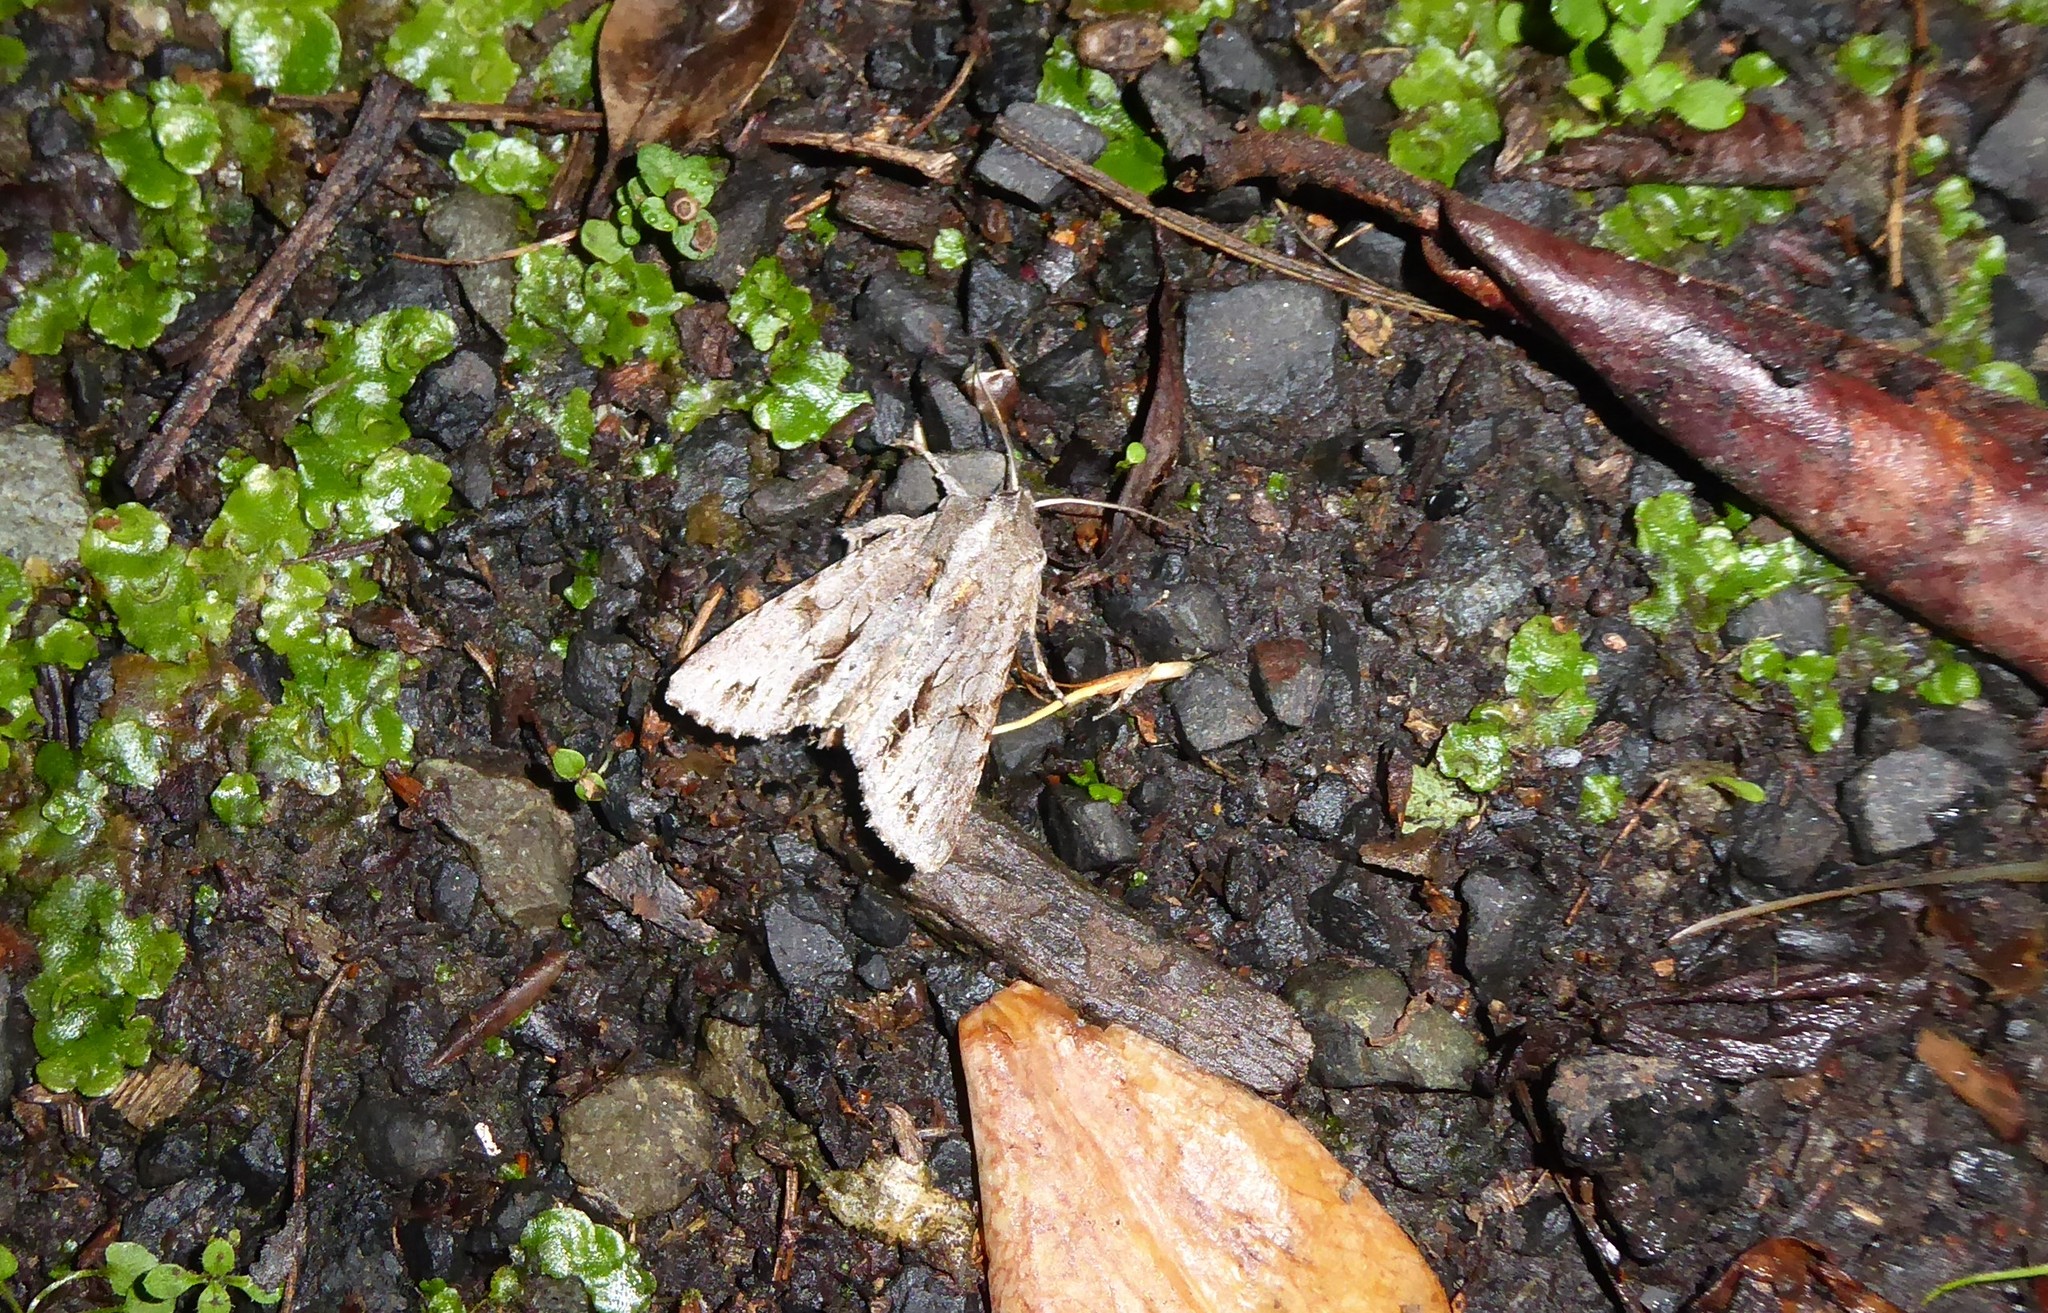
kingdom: Animalia
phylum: Arthropoda
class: Insecta
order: Lepidoptera
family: Noctuidae
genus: Ichneutica
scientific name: Ichneutica
